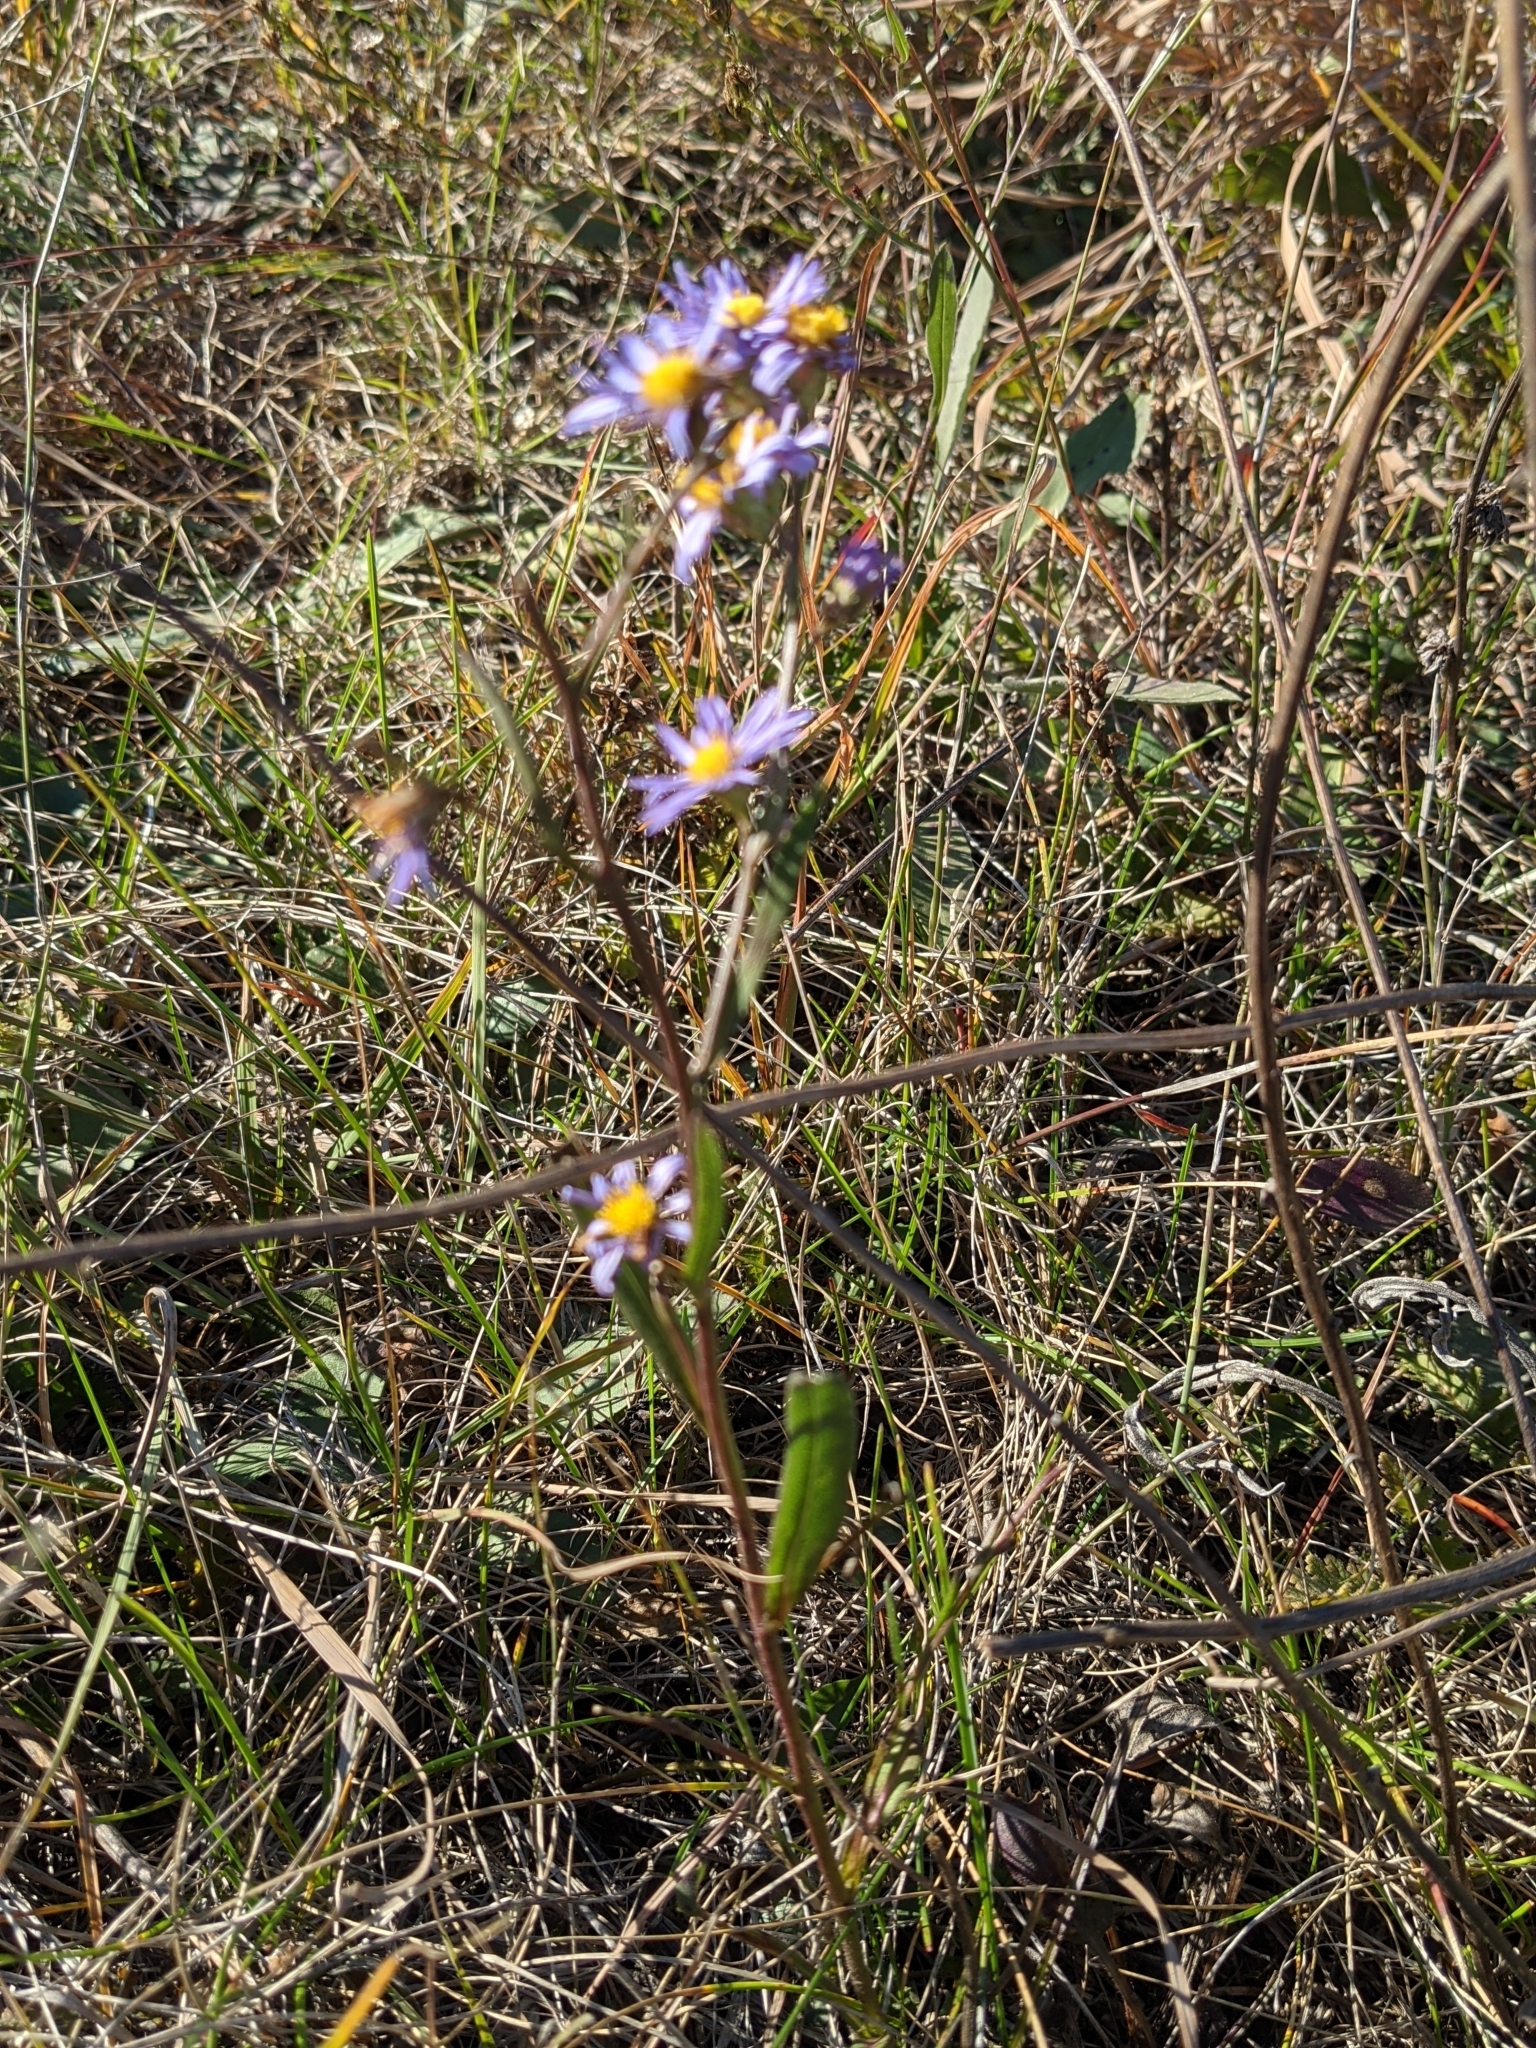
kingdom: Plantae
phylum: Tracheophyta
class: Magnoliopsida
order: Asterales
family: Asteraceae
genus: Symphyotrichum
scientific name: Symphyotrichum oolentangiense
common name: Azure aster
